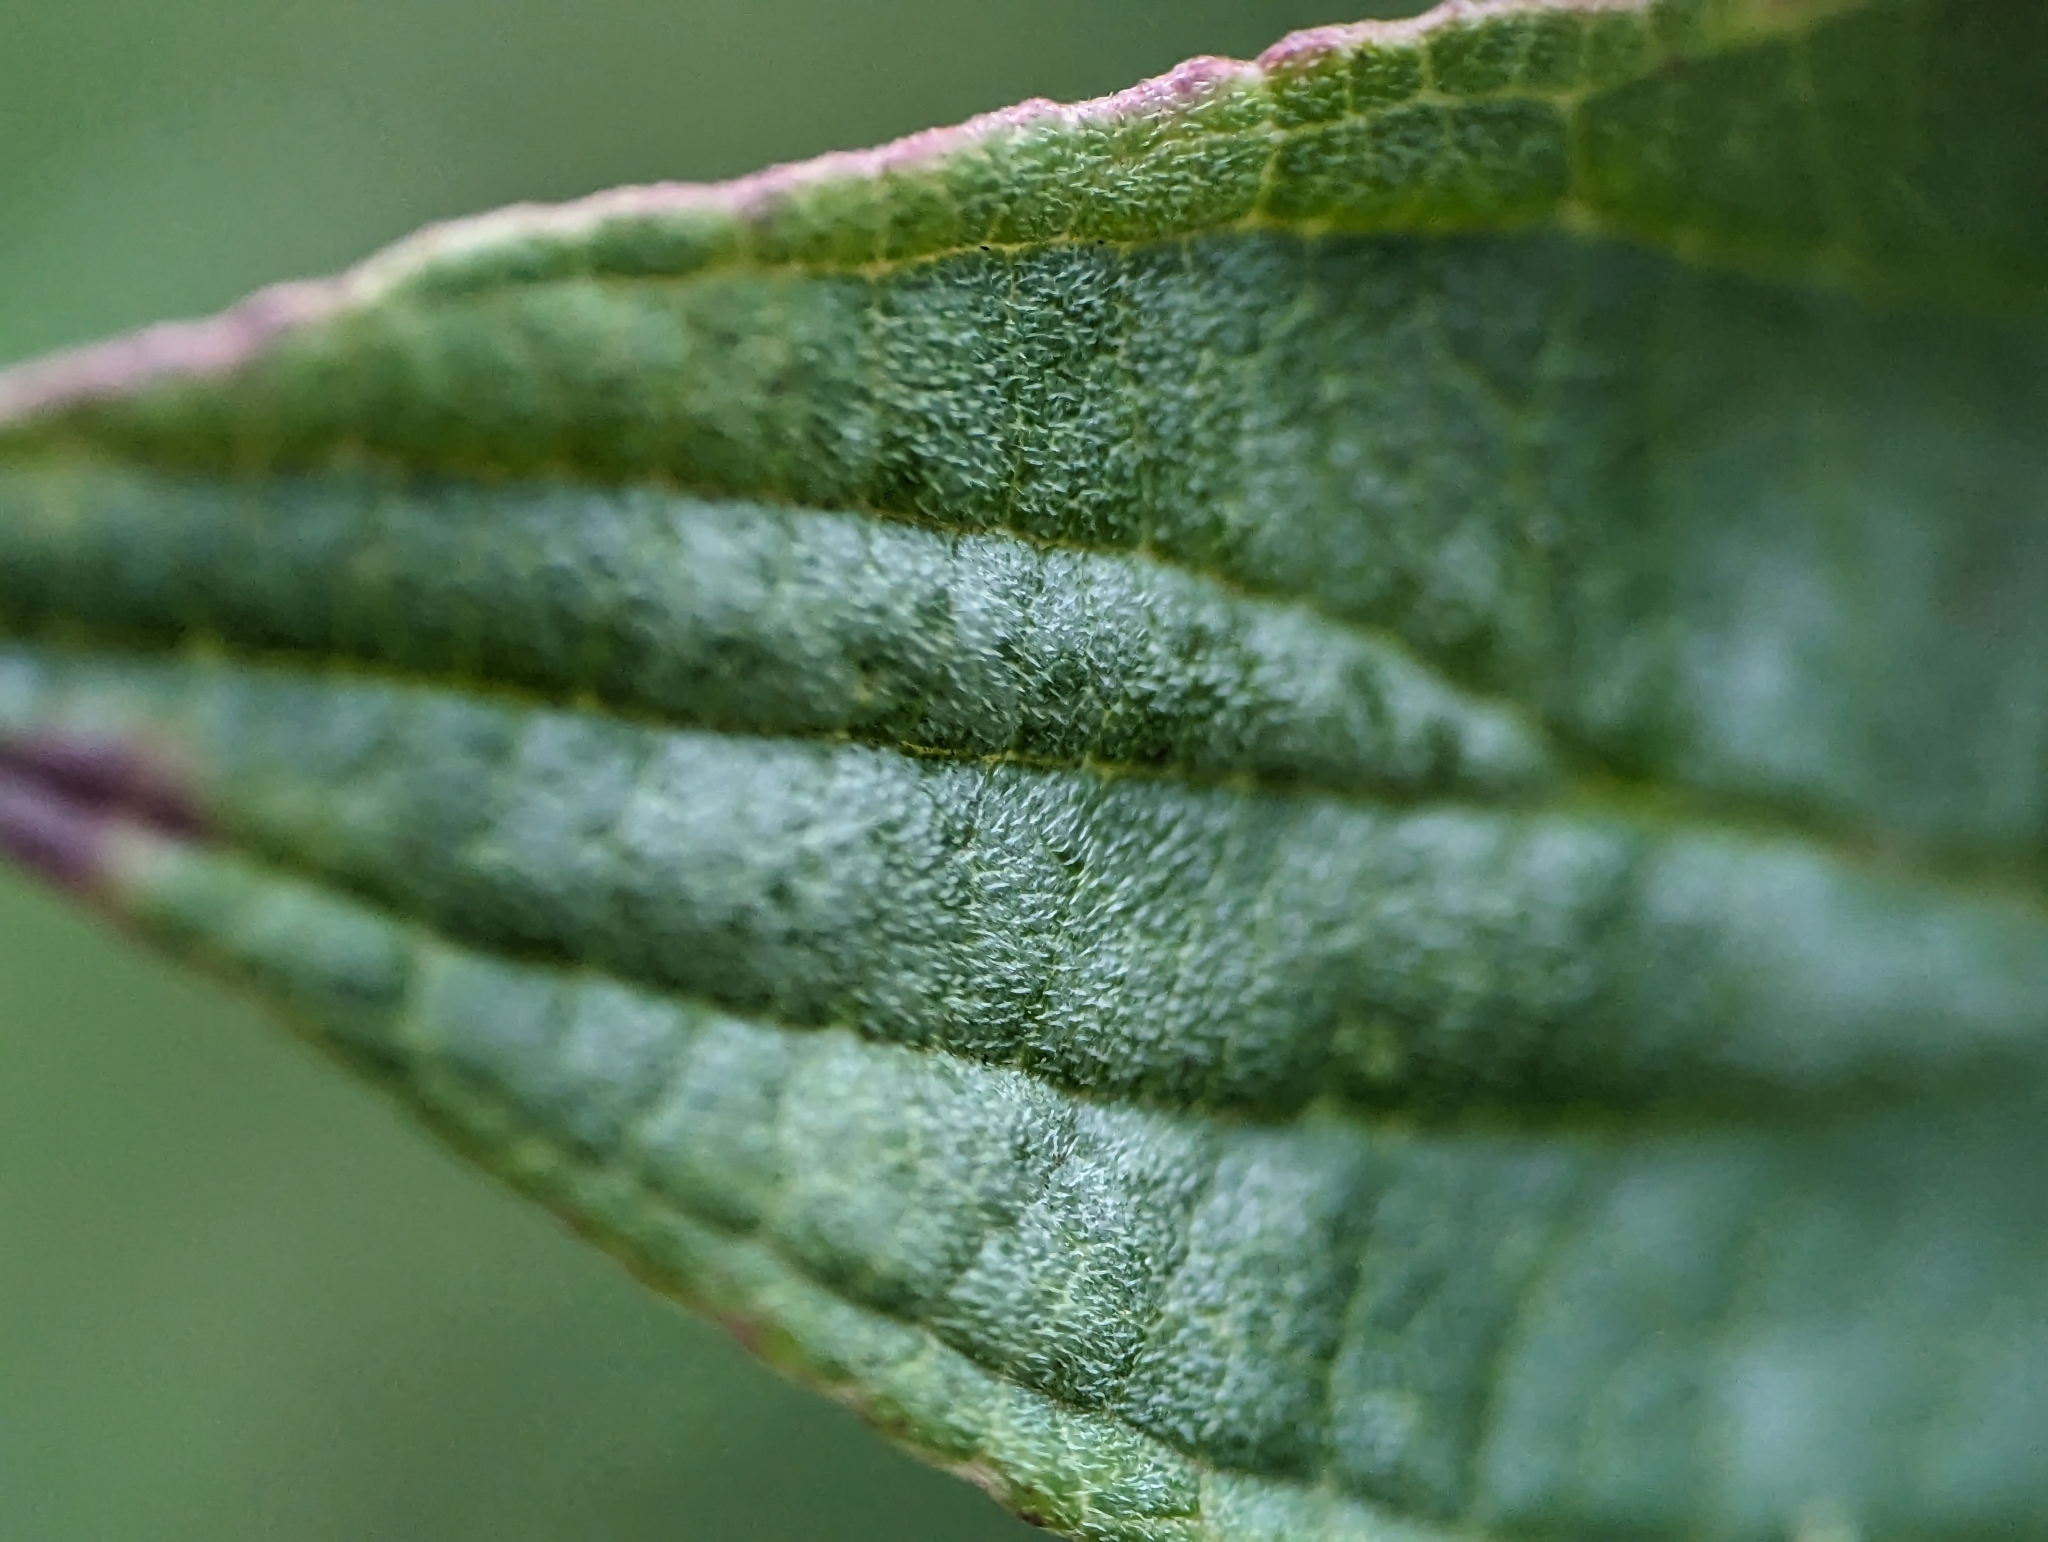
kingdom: Fungi
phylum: Ascomycota
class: Leotiomycetes
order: Helotiales
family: Erysiphaceae
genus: Erysiphe
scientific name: Erysiphe tortilis
